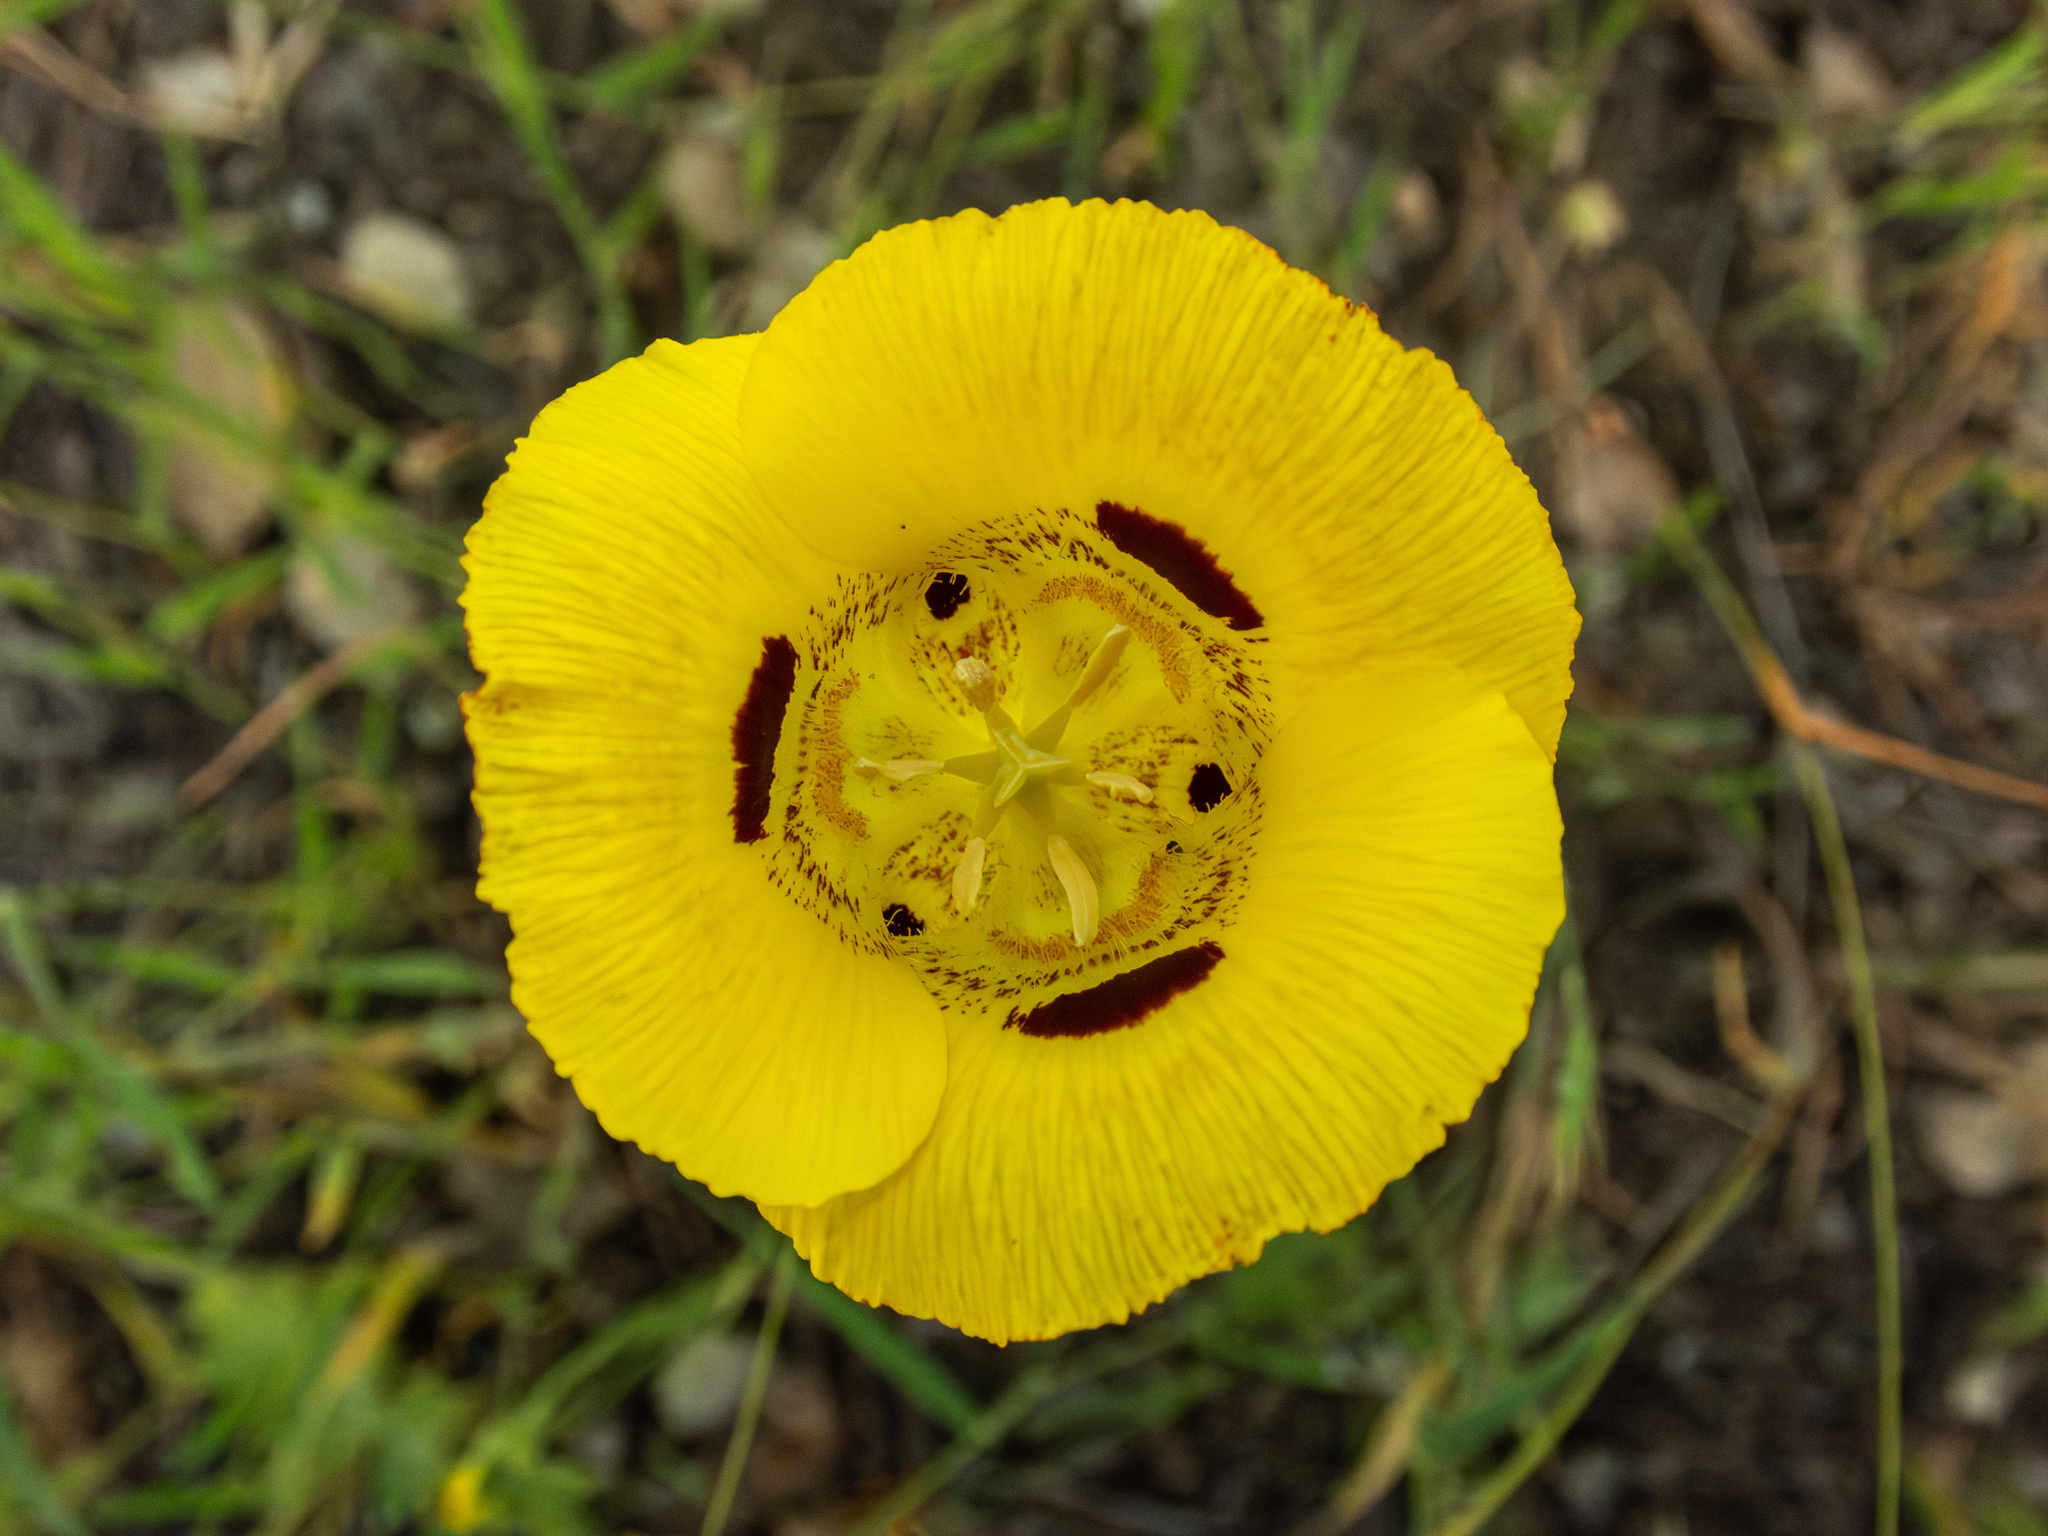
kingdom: Plantae
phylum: Tracheophyta
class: Liliopsida
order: Liliales
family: Liliaceae
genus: Calochortus
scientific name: Calochortus luteus
